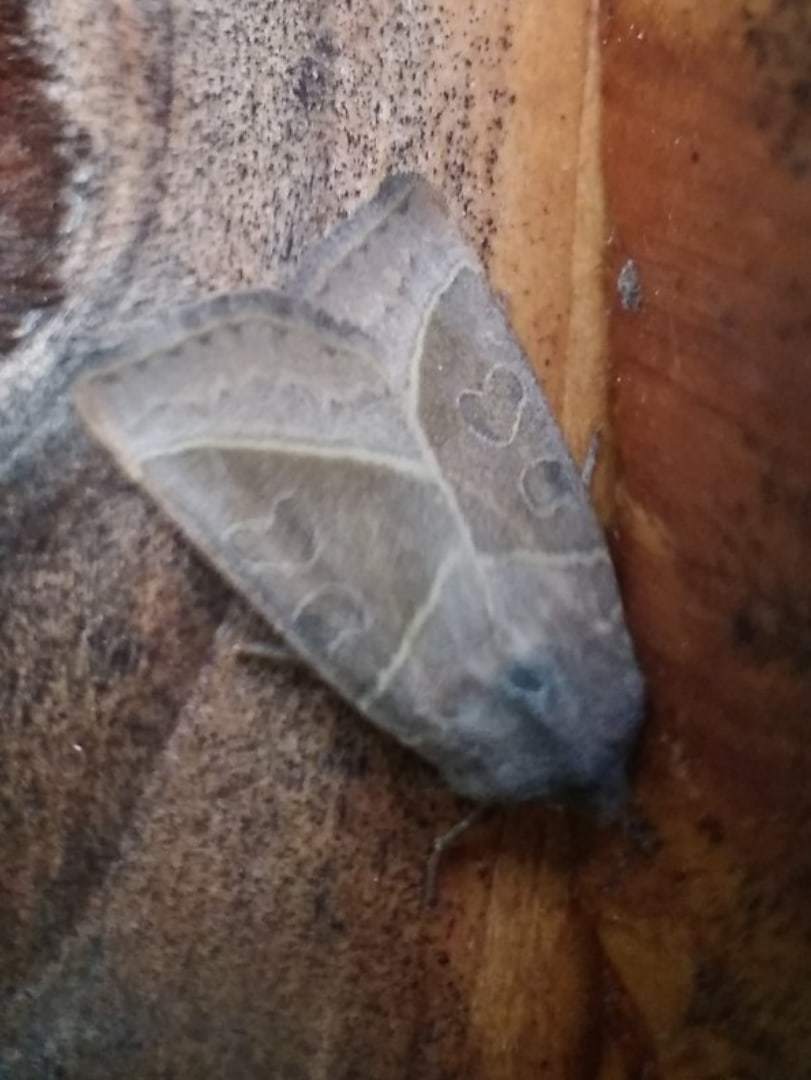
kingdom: Animalia
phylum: Arthropoda
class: Insecta
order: Lepidoptera
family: Noctuidae
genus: Mesogona
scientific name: Mesogona oxalina
